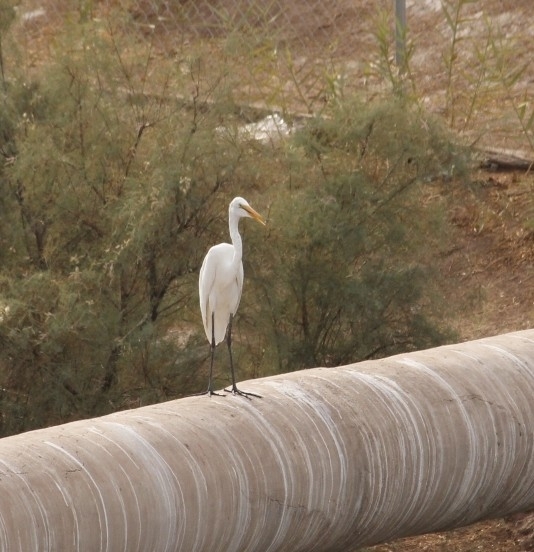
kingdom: Animalia
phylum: Chordata
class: Aves
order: Pelecaniformes
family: Ardeidae
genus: Ardea
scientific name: Ardea alba
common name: Great egret
